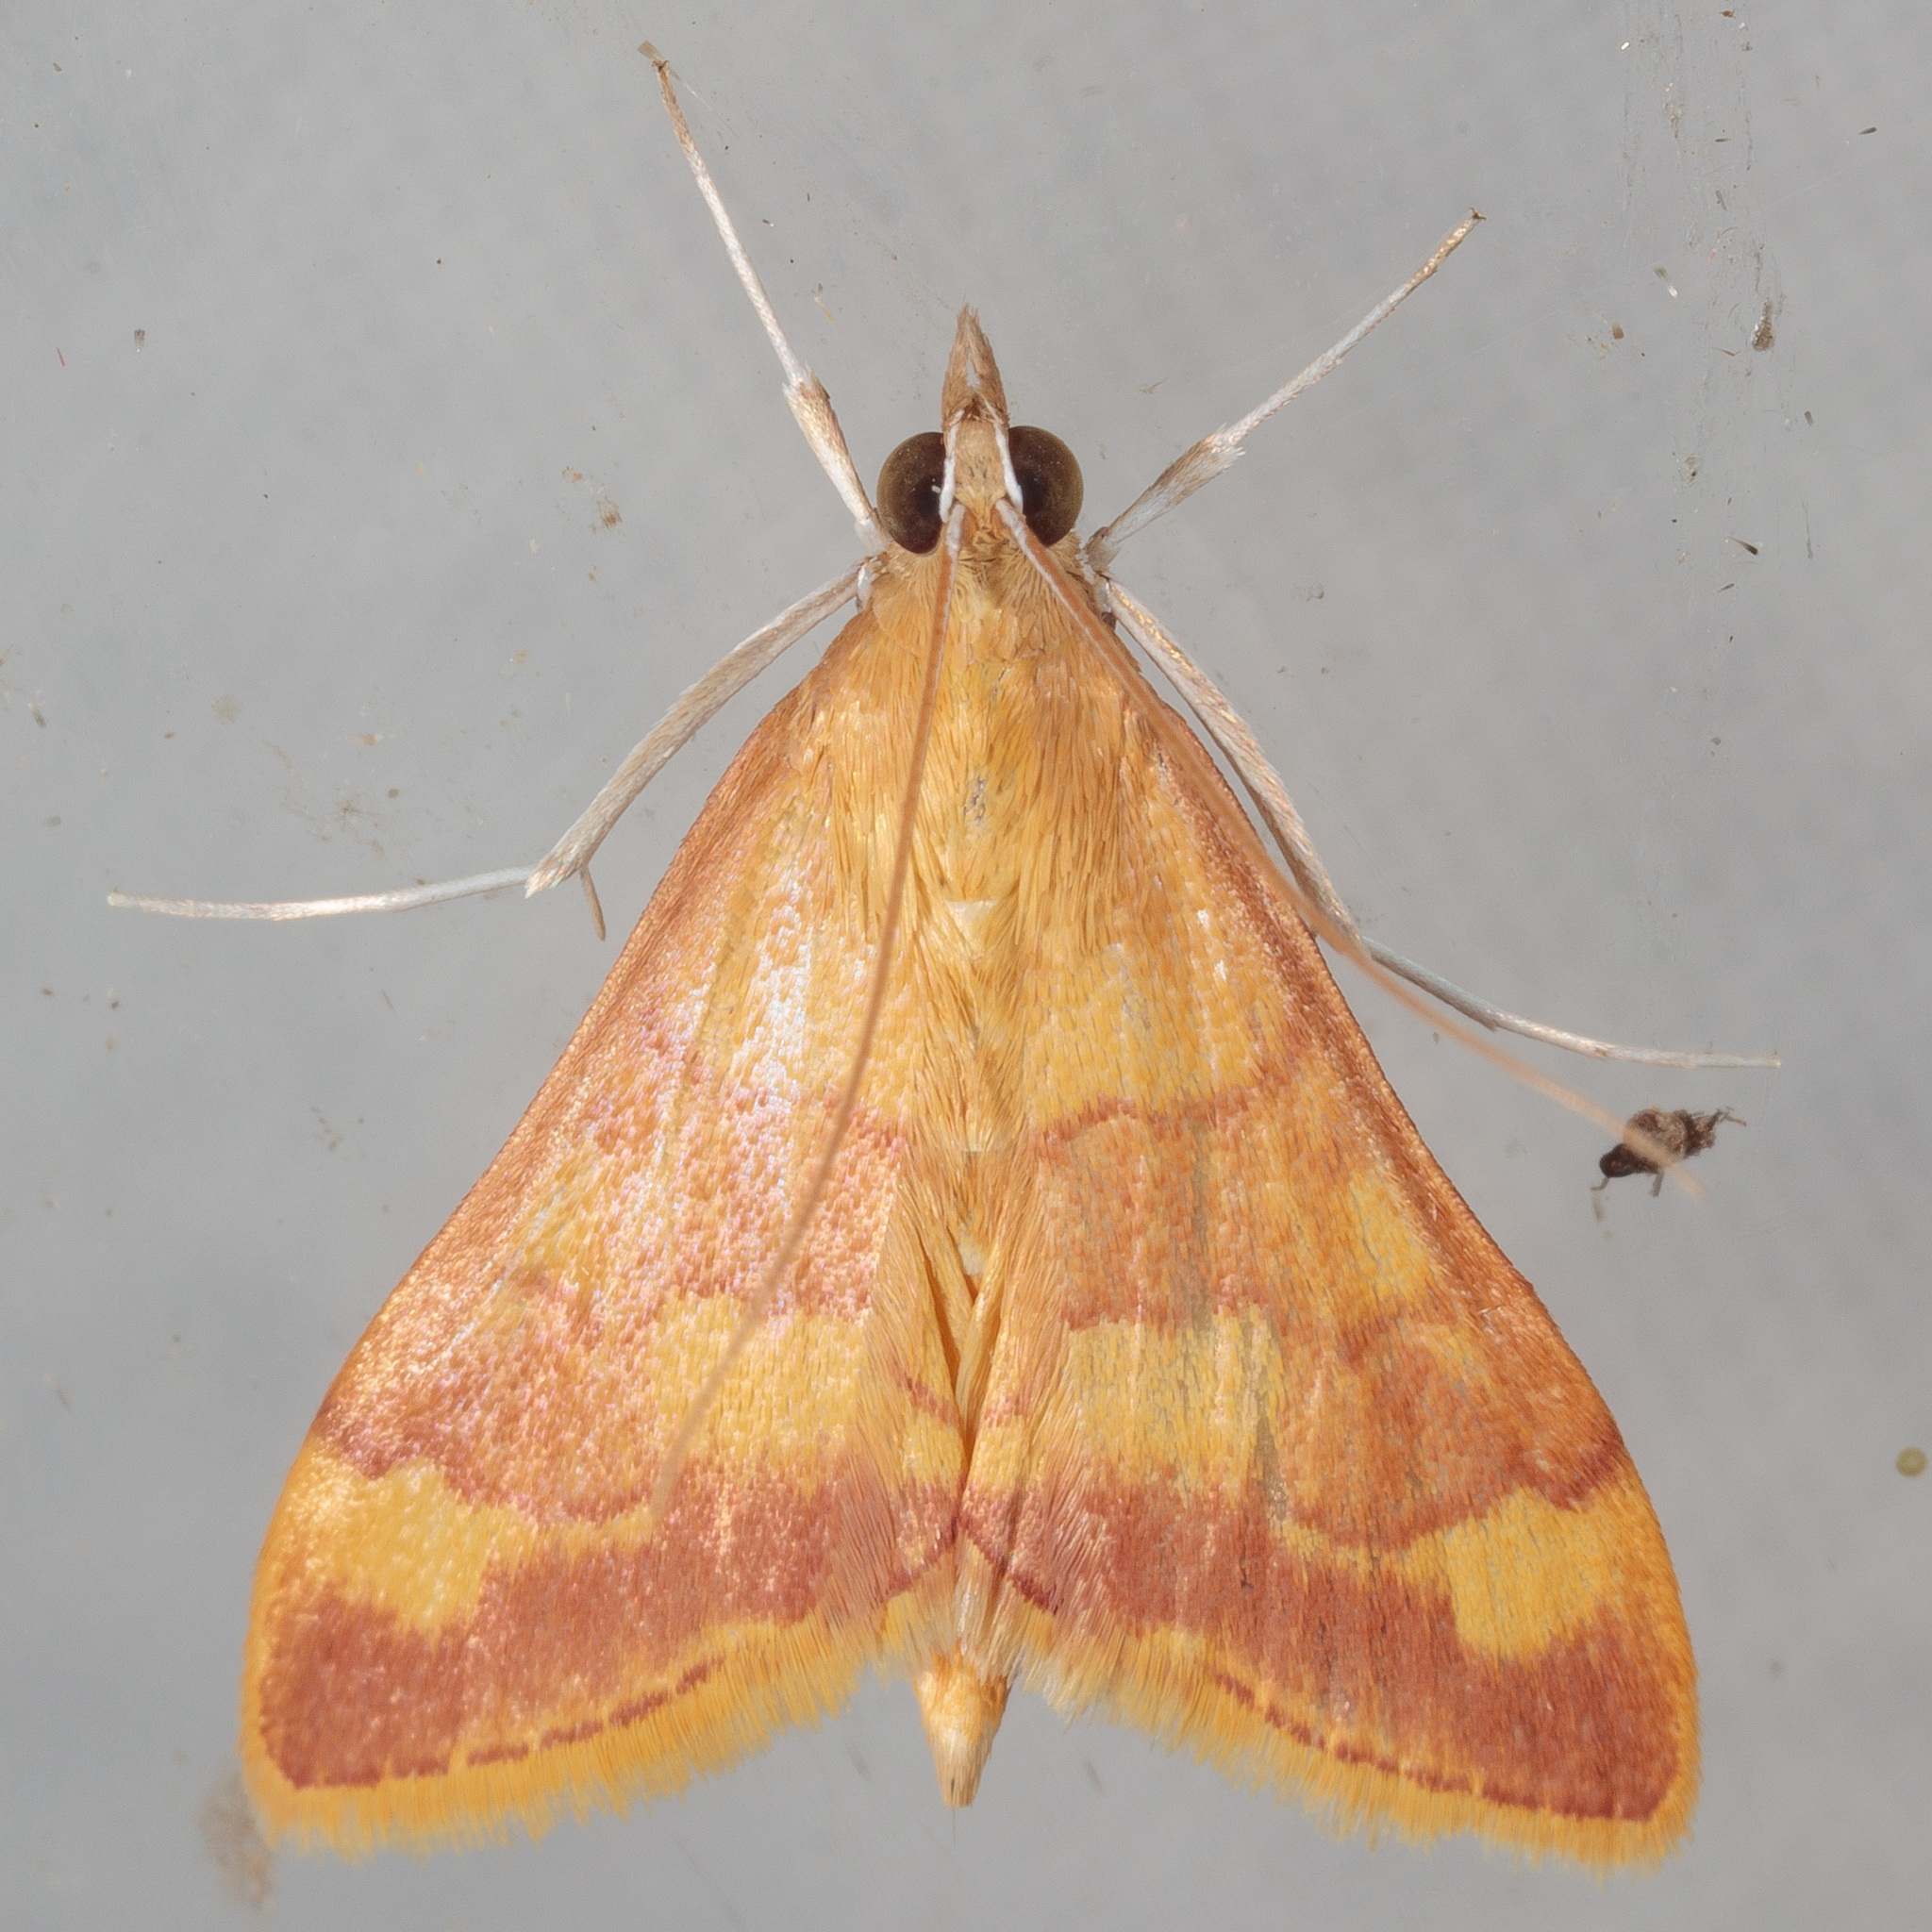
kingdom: Animalia
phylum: Arthropoda
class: Insecta
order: Lepidoptera
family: Crambidae
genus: Pyrausta
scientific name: Pyrausta pseudonythesalis
